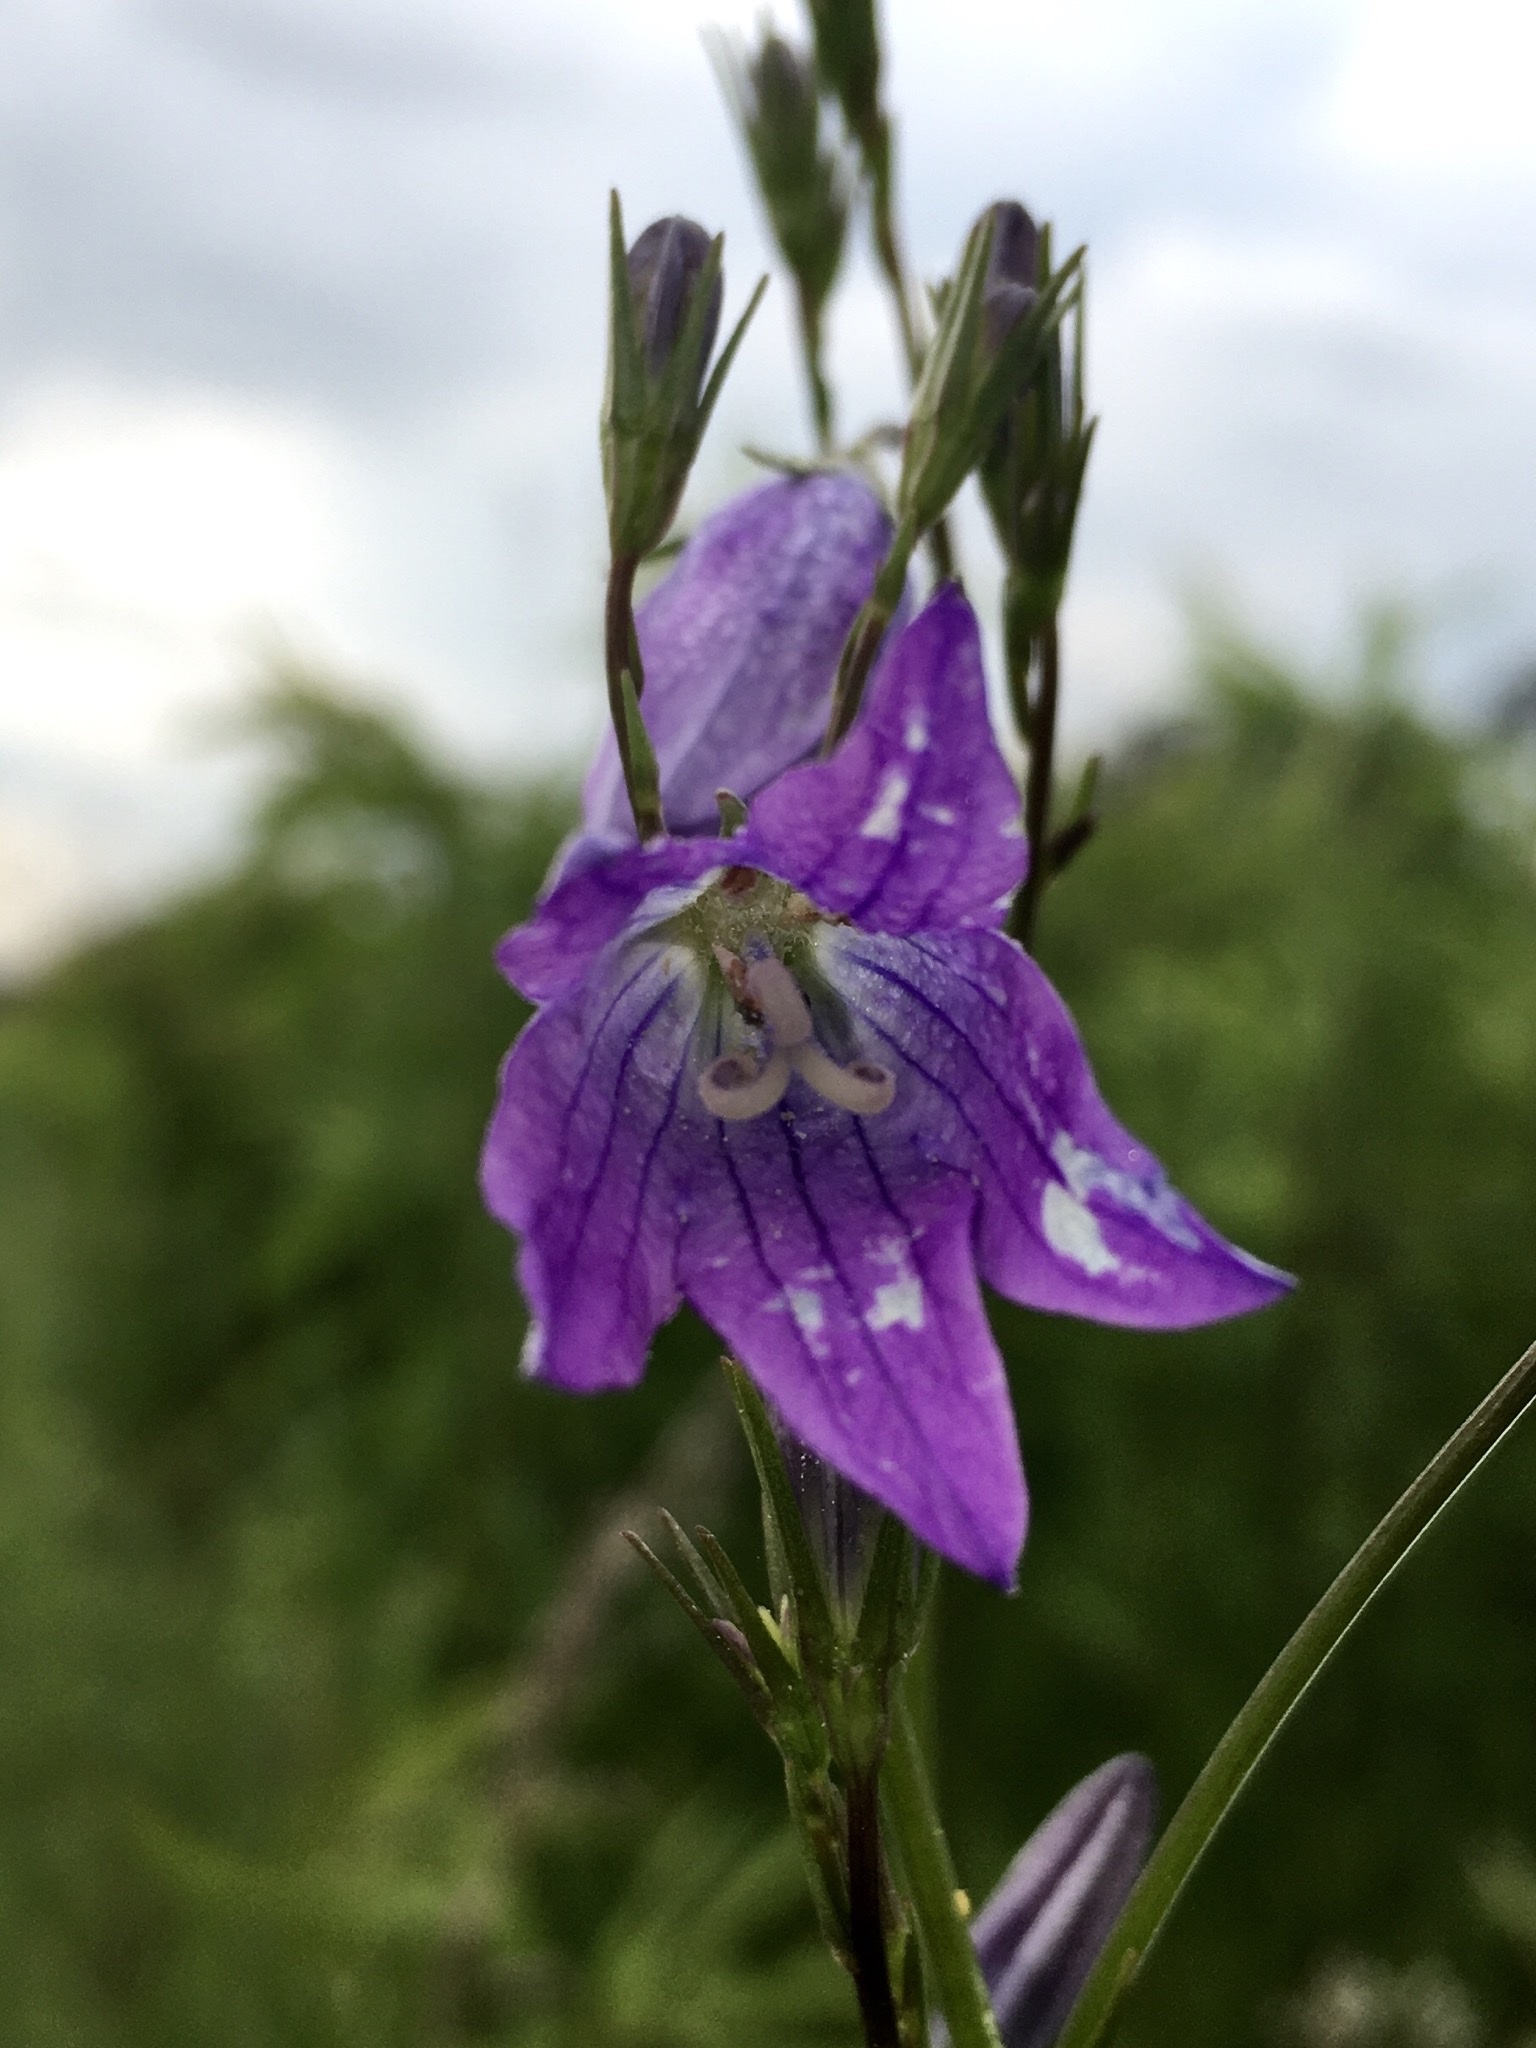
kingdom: Plantae
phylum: Tracheophyta
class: Magnoliopsida
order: Asterales
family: Campanulaceae
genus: Campanula
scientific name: Campanula patula
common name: Spreading bellflower
